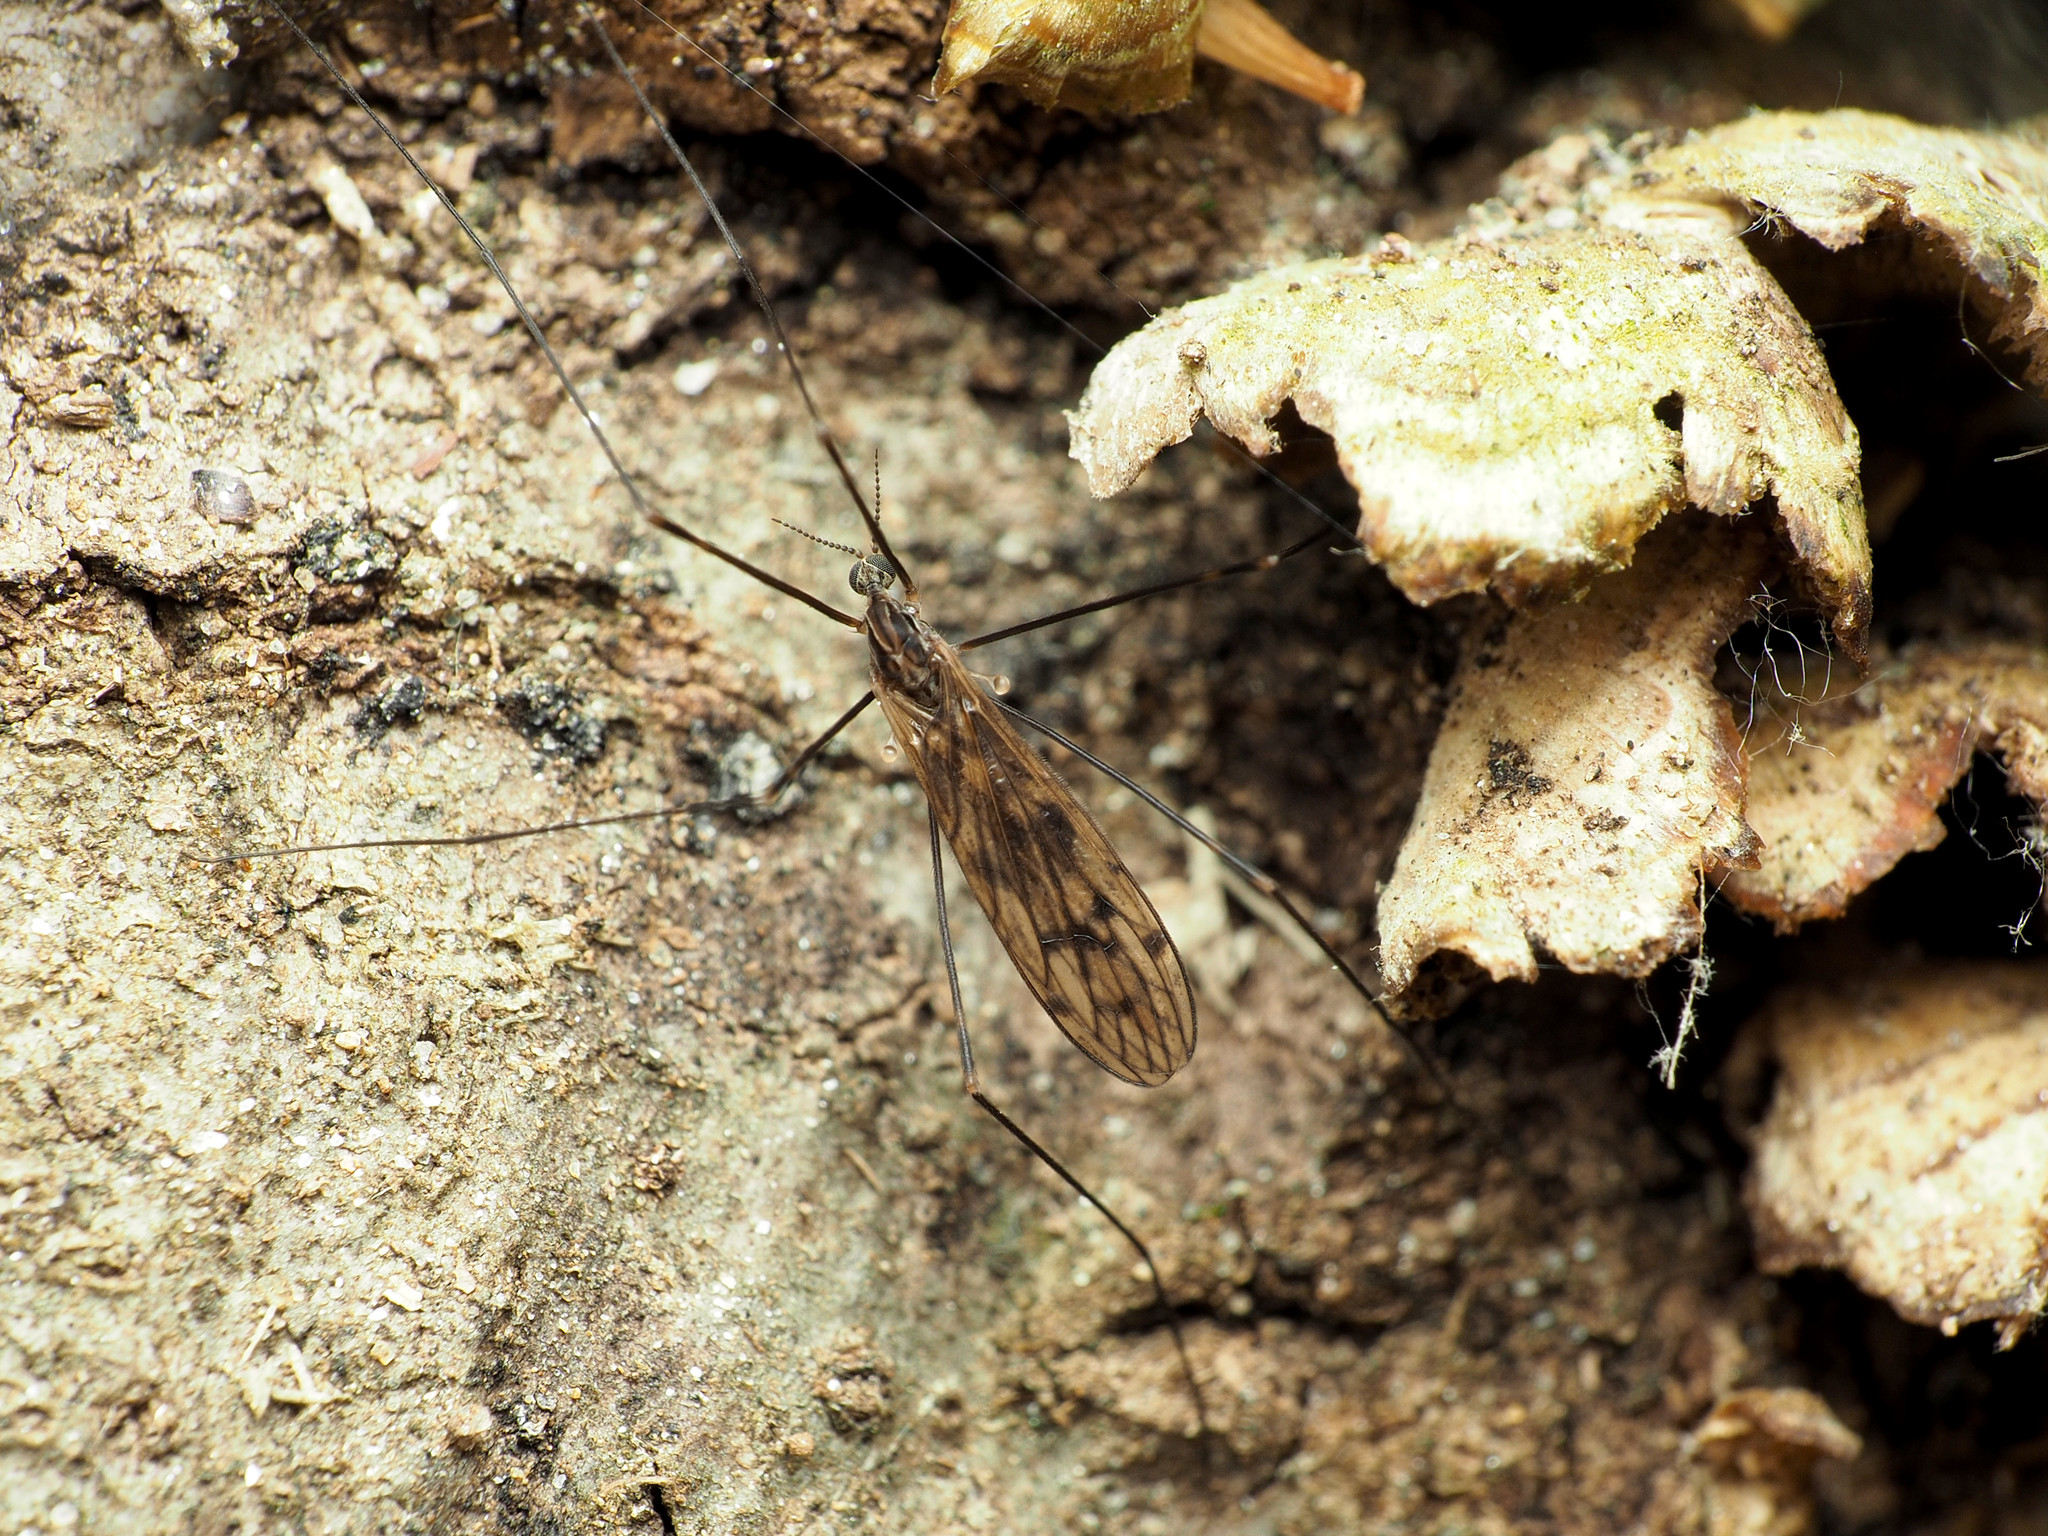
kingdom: Animalia
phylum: Arthropoda
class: Insecta
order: Diptera
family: Limoniidae
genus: Metalimnobia
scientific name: Metalimnobia novaeangliae
